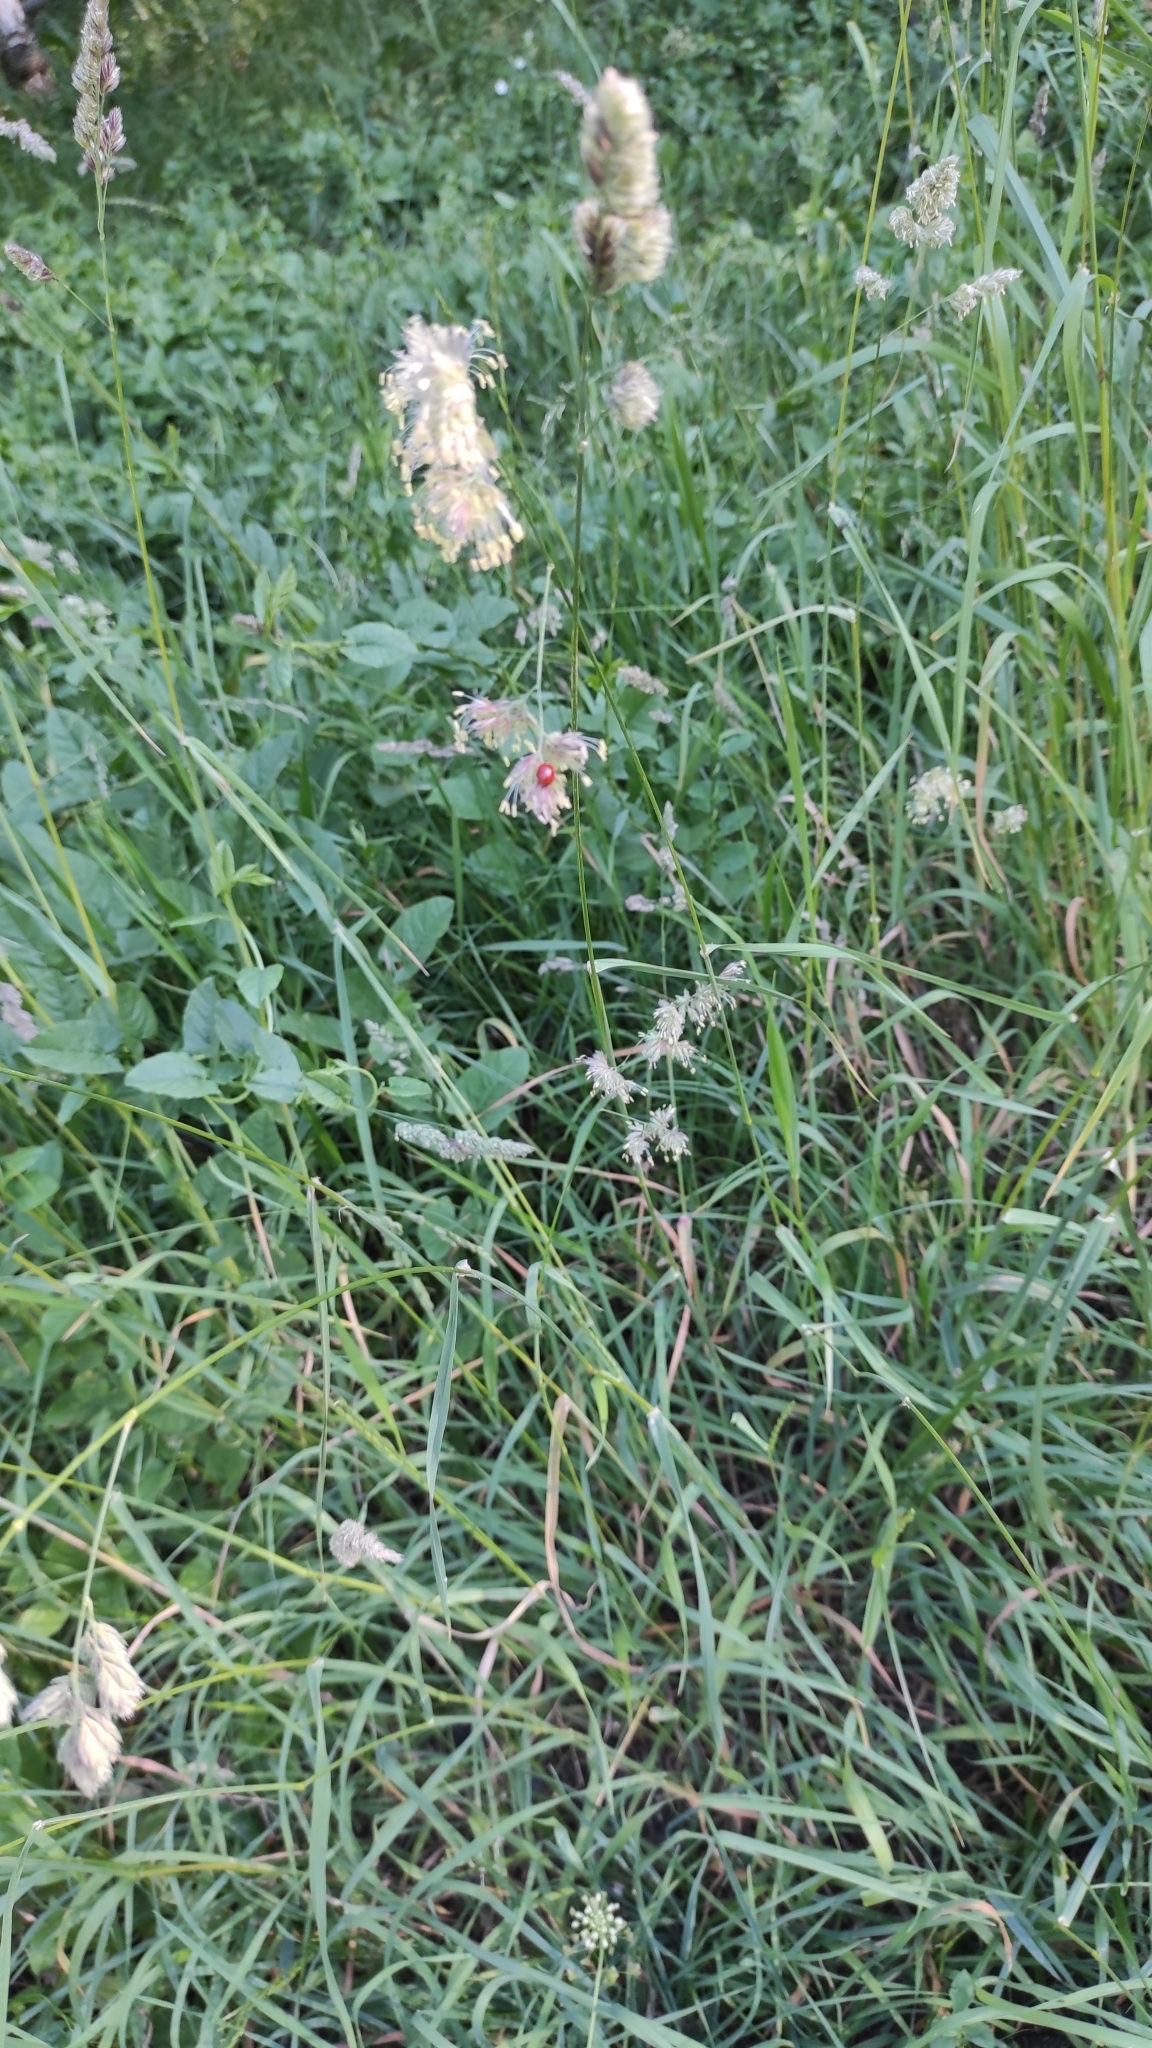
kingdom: Animalia
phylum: Arthropoda
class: Insecta
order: Coleoptera
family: Coccinellidae
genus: Adalia
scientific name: Adalia bipunctata
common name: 2-spot ladybird
